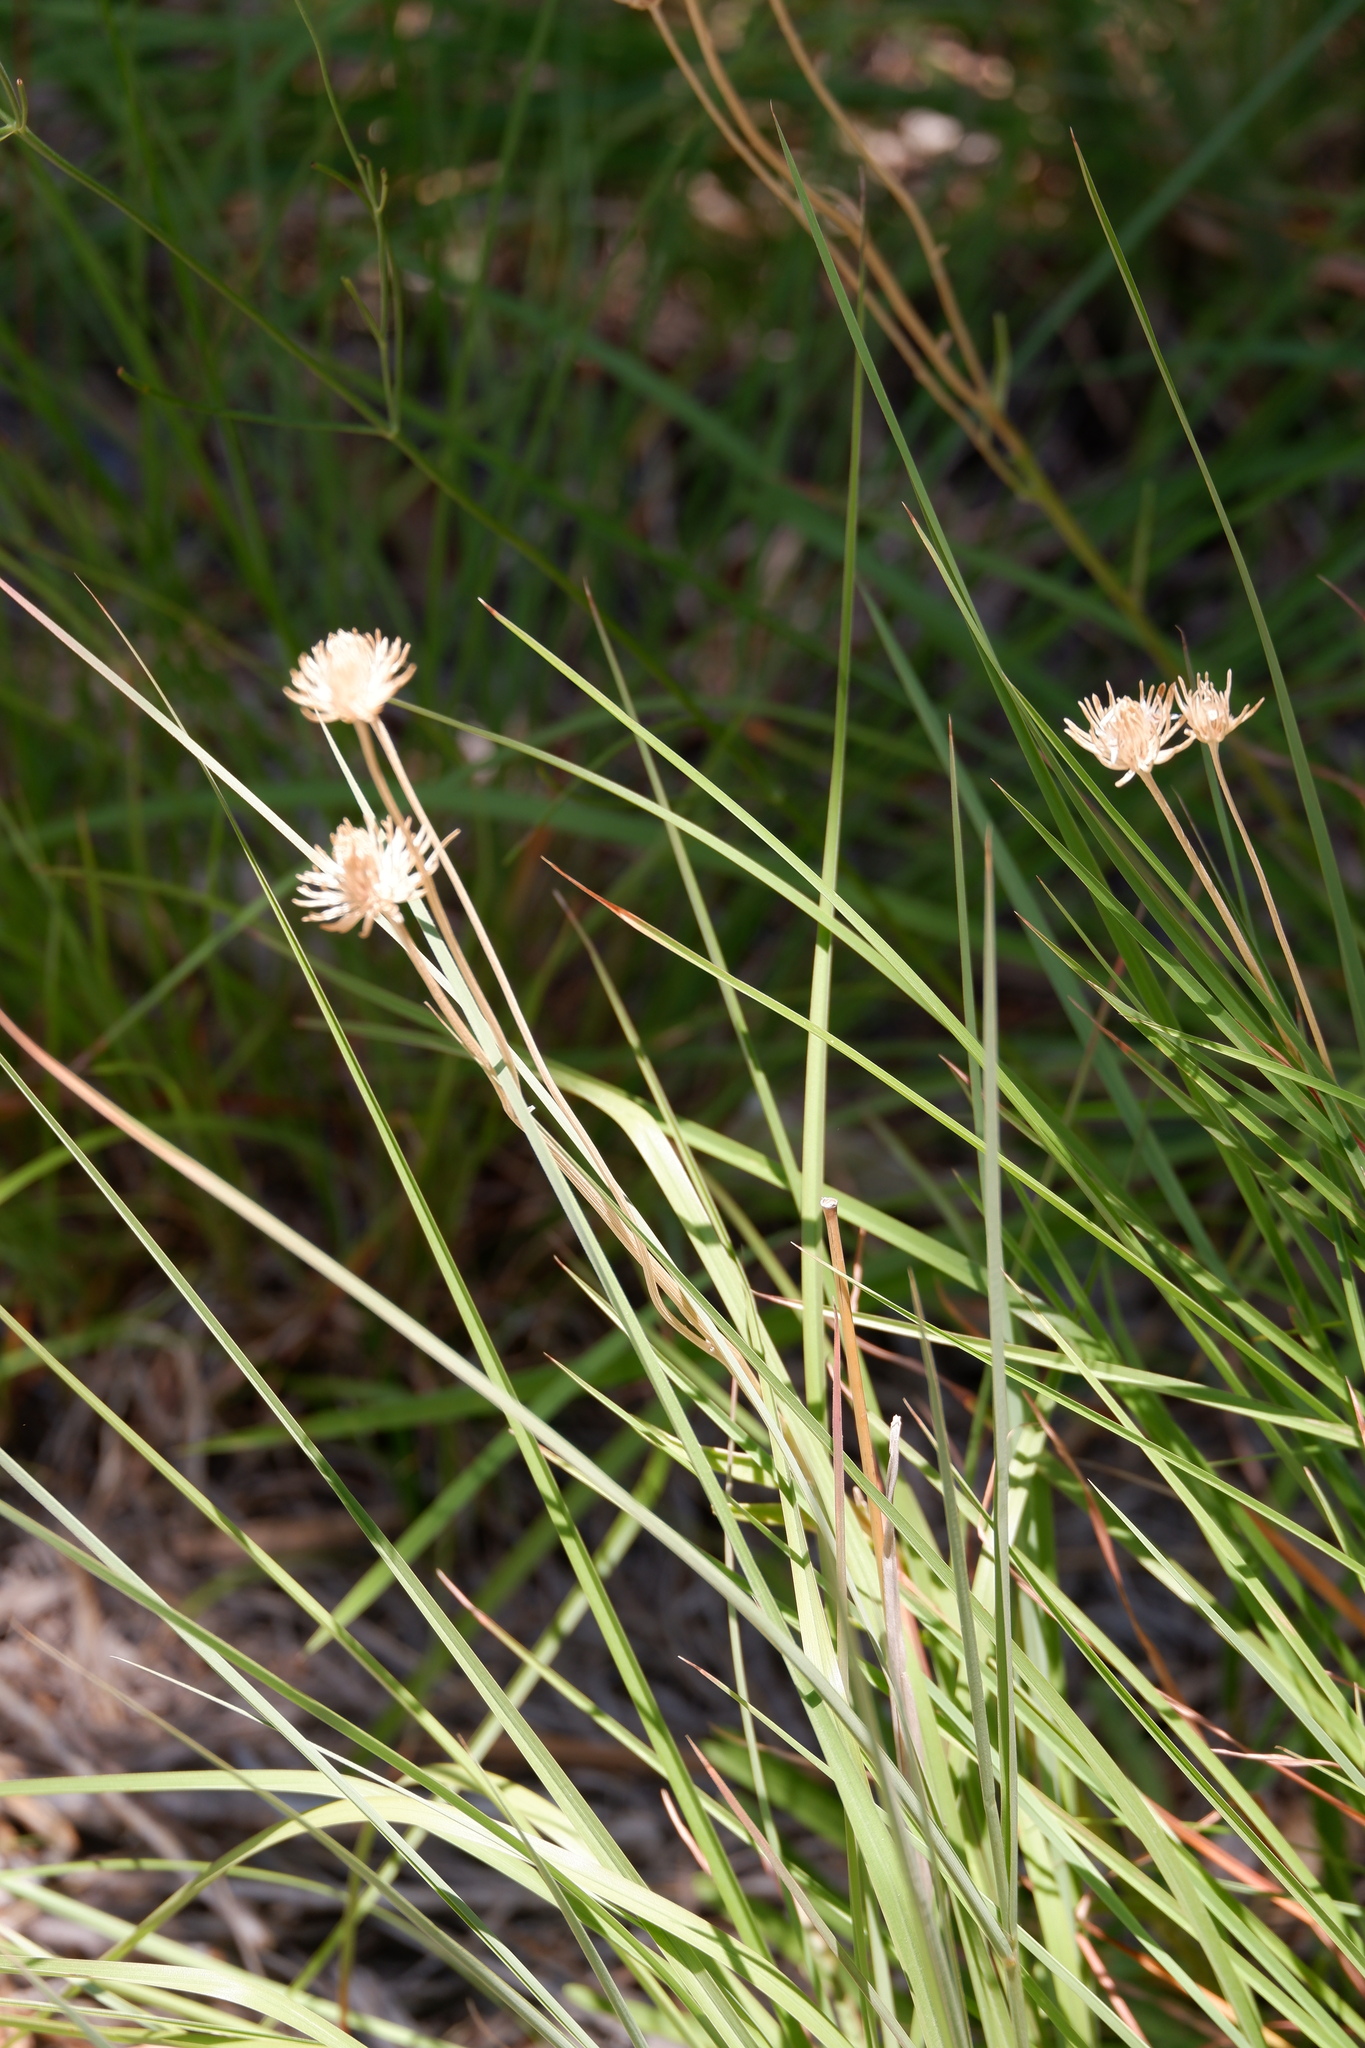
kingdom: Plantae
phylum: Tracheophyta
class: Magnoliopsida
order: Asterales
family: Asteraceae
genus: Marshallia
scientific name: Marshallia caespitosa
